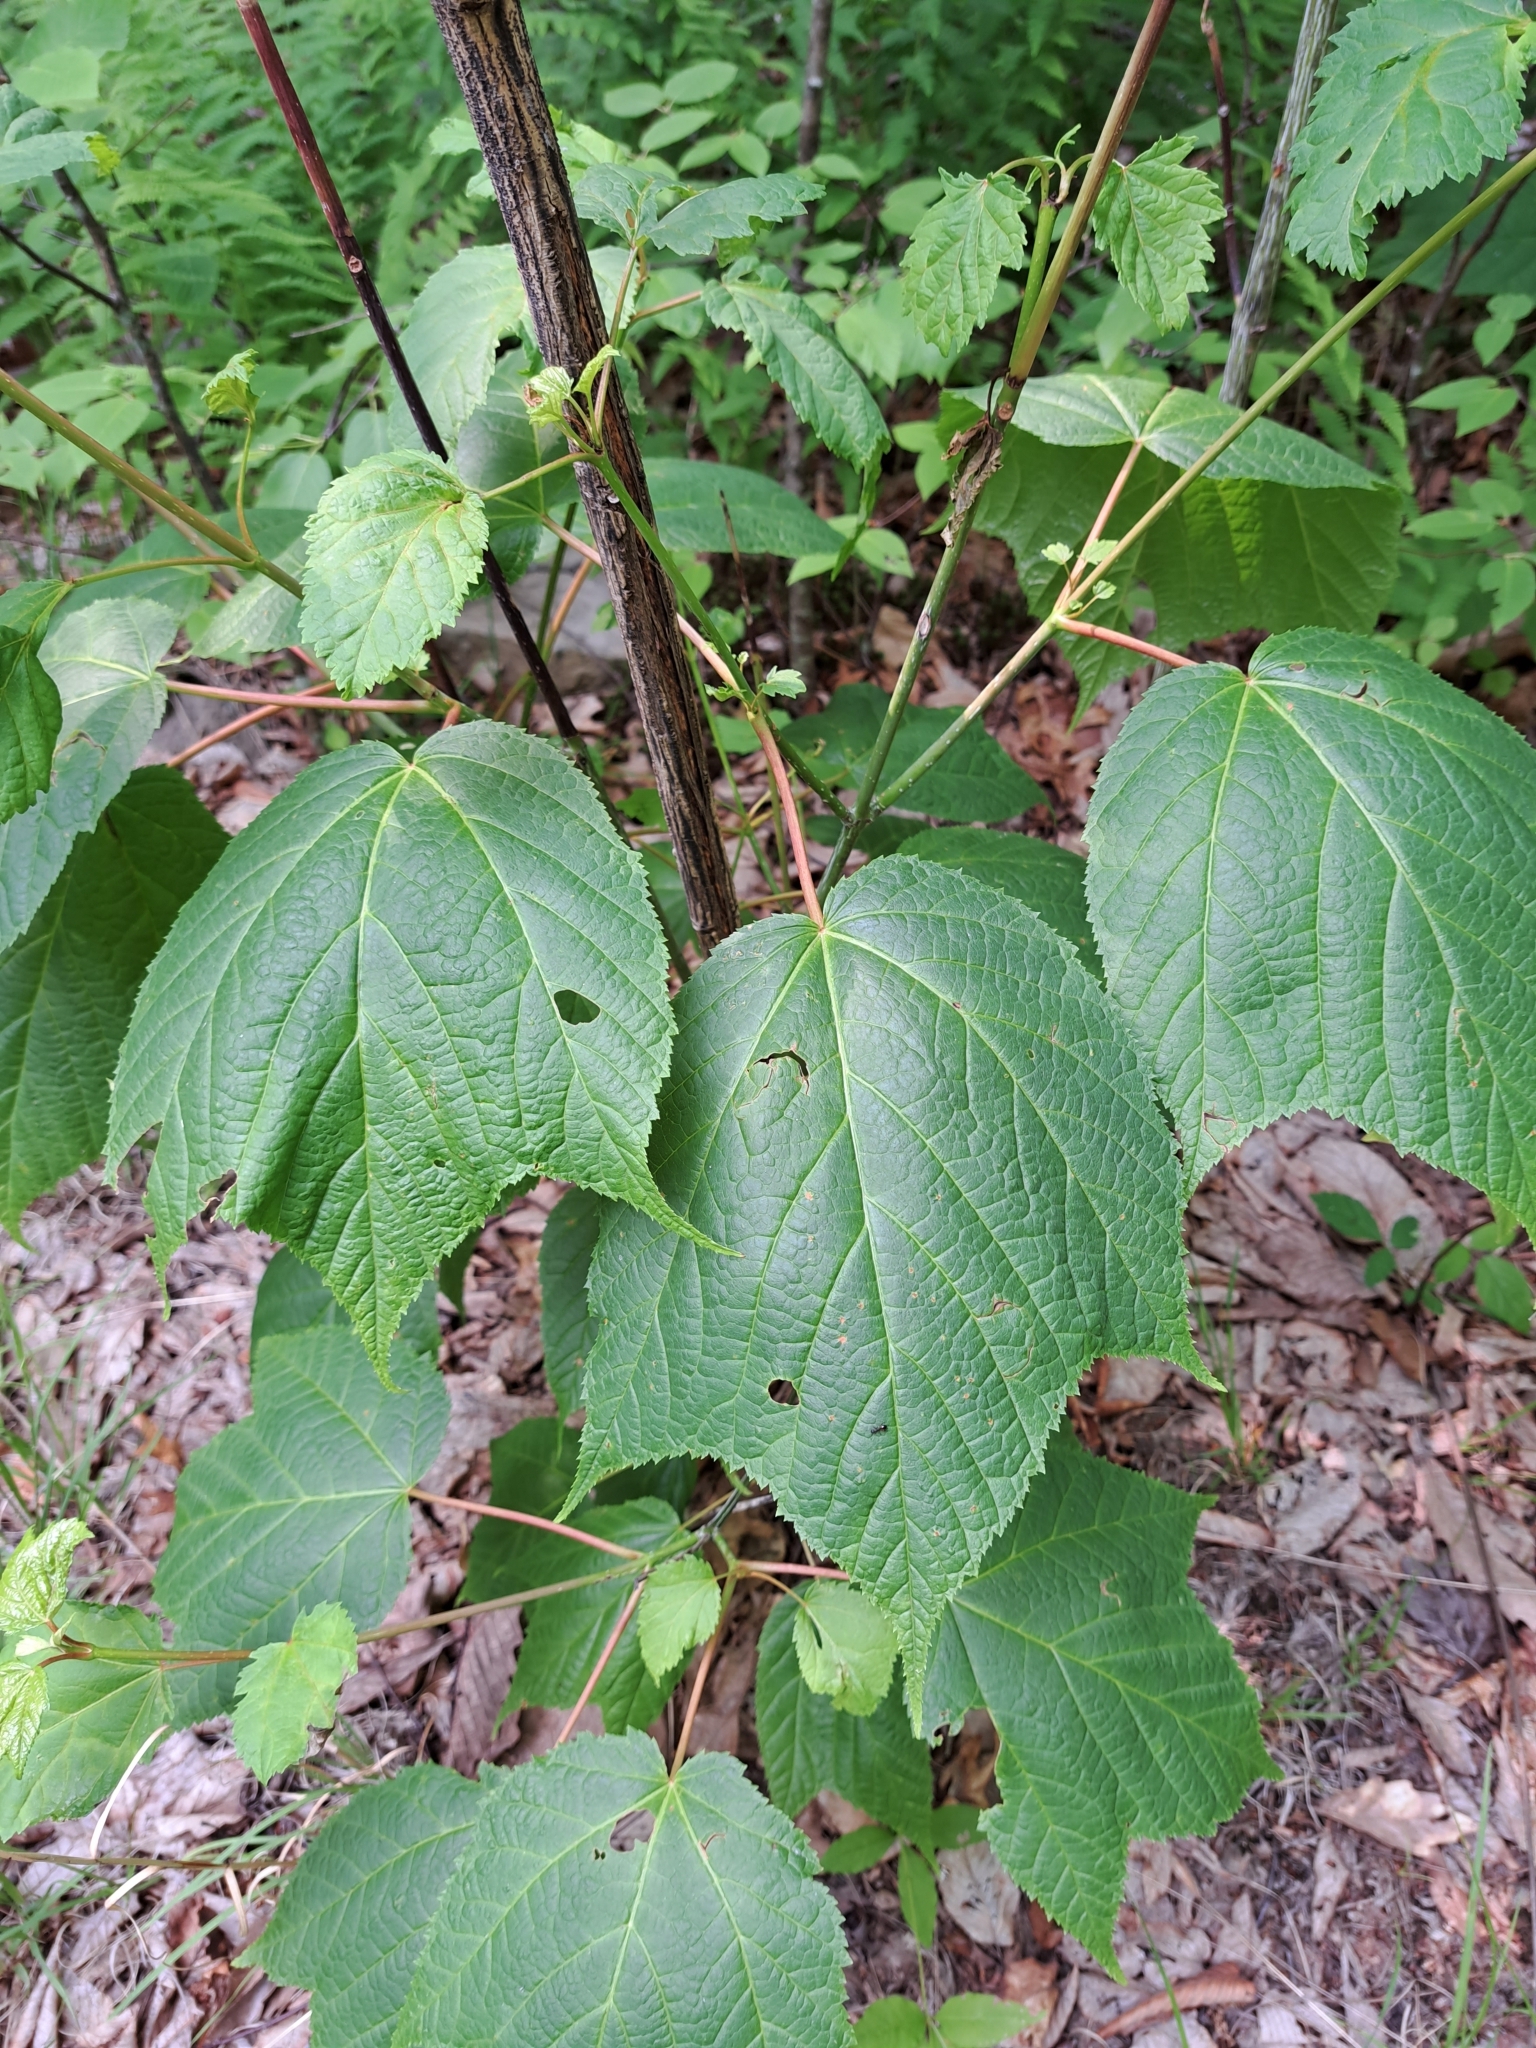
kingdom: Plantae
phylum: Tracheophyta
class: Magnoliopsida
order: Sapindales
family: Sapindaceae
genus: Acer
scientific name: Acer pensylvanicum
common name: Moosewood
